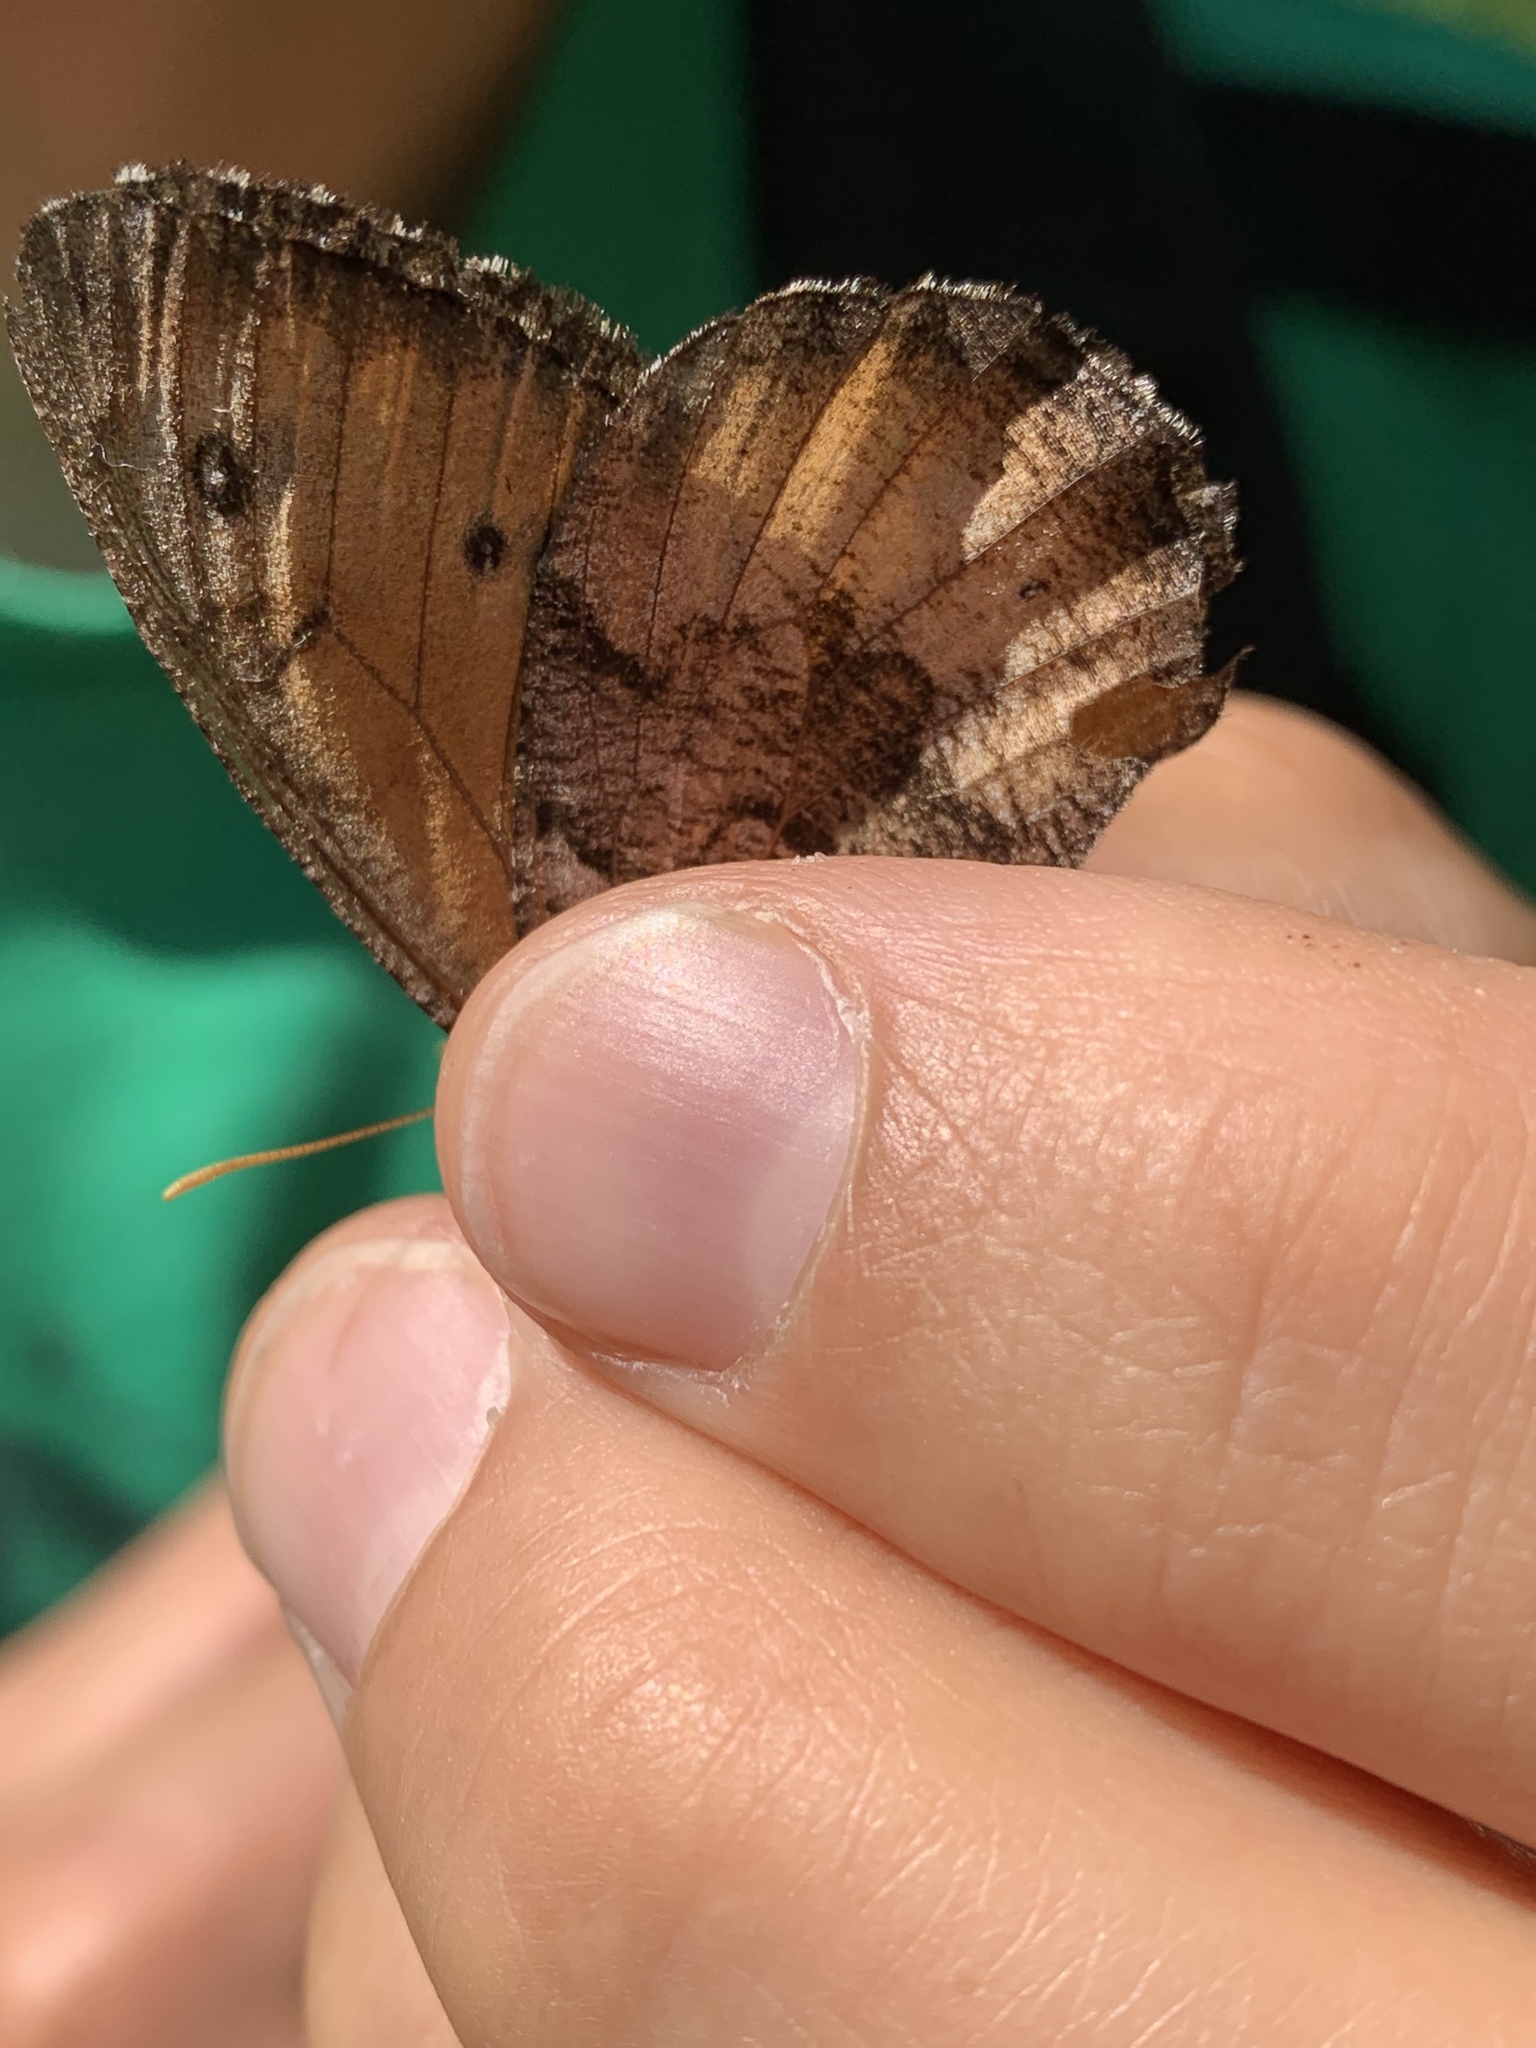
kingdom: Animalia
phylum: Arthropoda
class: Insecta
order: Lepidoptera
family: Nymphalidae
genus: Oeneis
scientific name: Oeneis macounii
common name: Macoun's arctic
